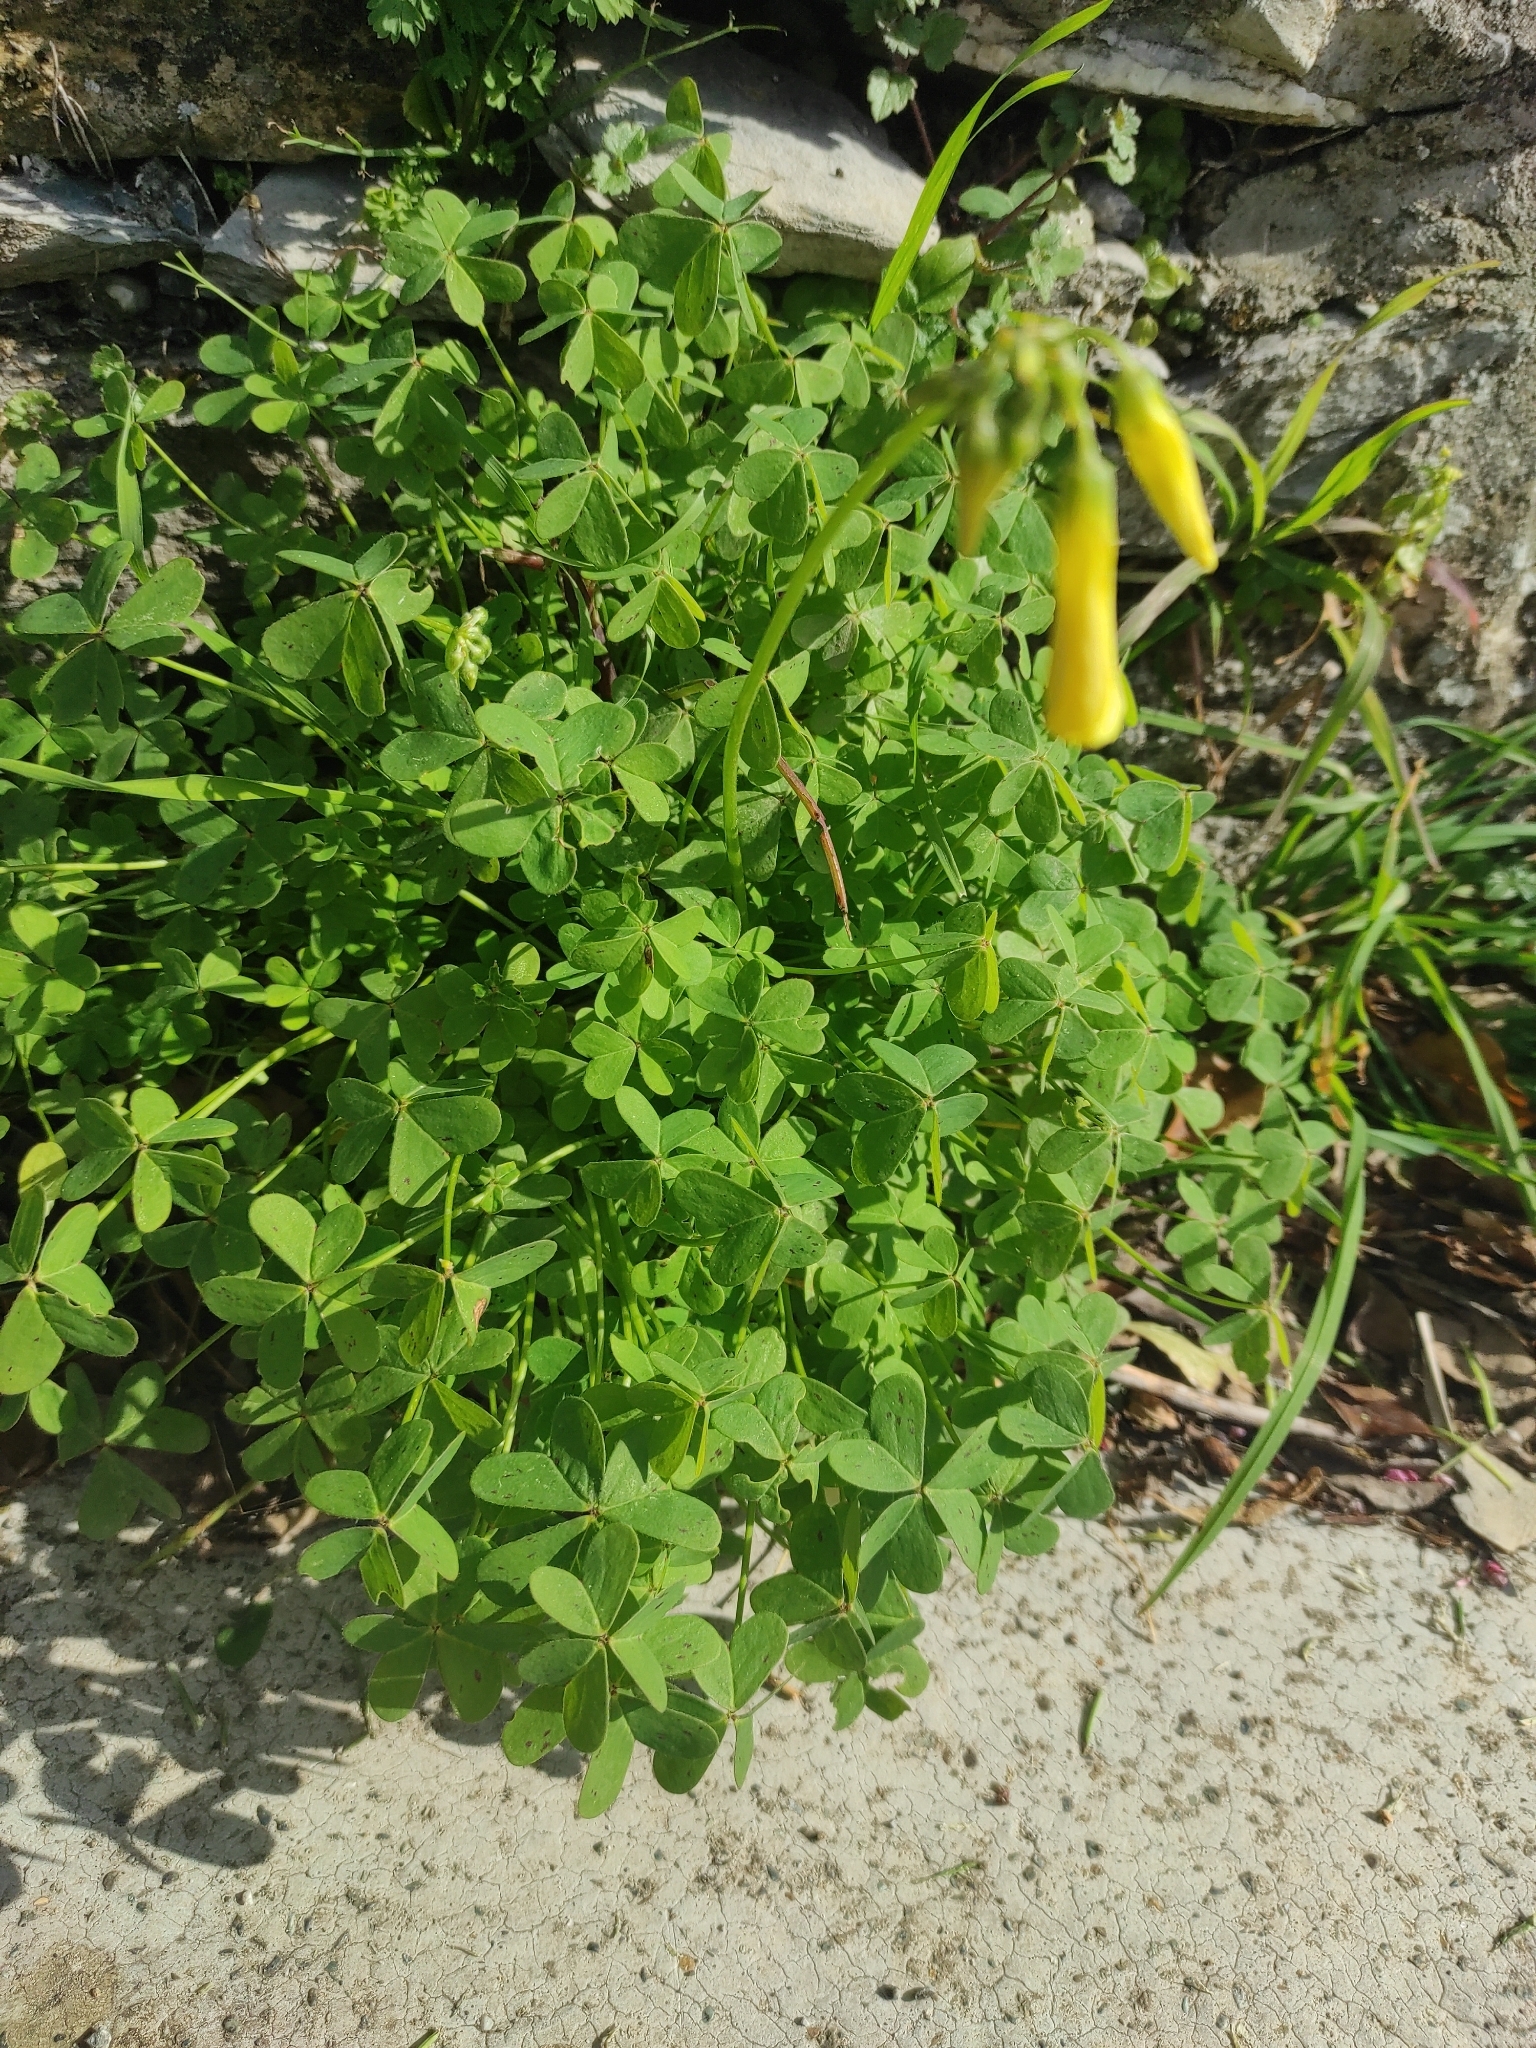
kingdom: Plantae
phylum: Tracheophyta
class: Magnoliopsida
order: Oxalidales
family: Oxalidaceae
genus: Oxalis
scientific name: Oxalis pes-caprae
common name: Bermuda-buttercup
